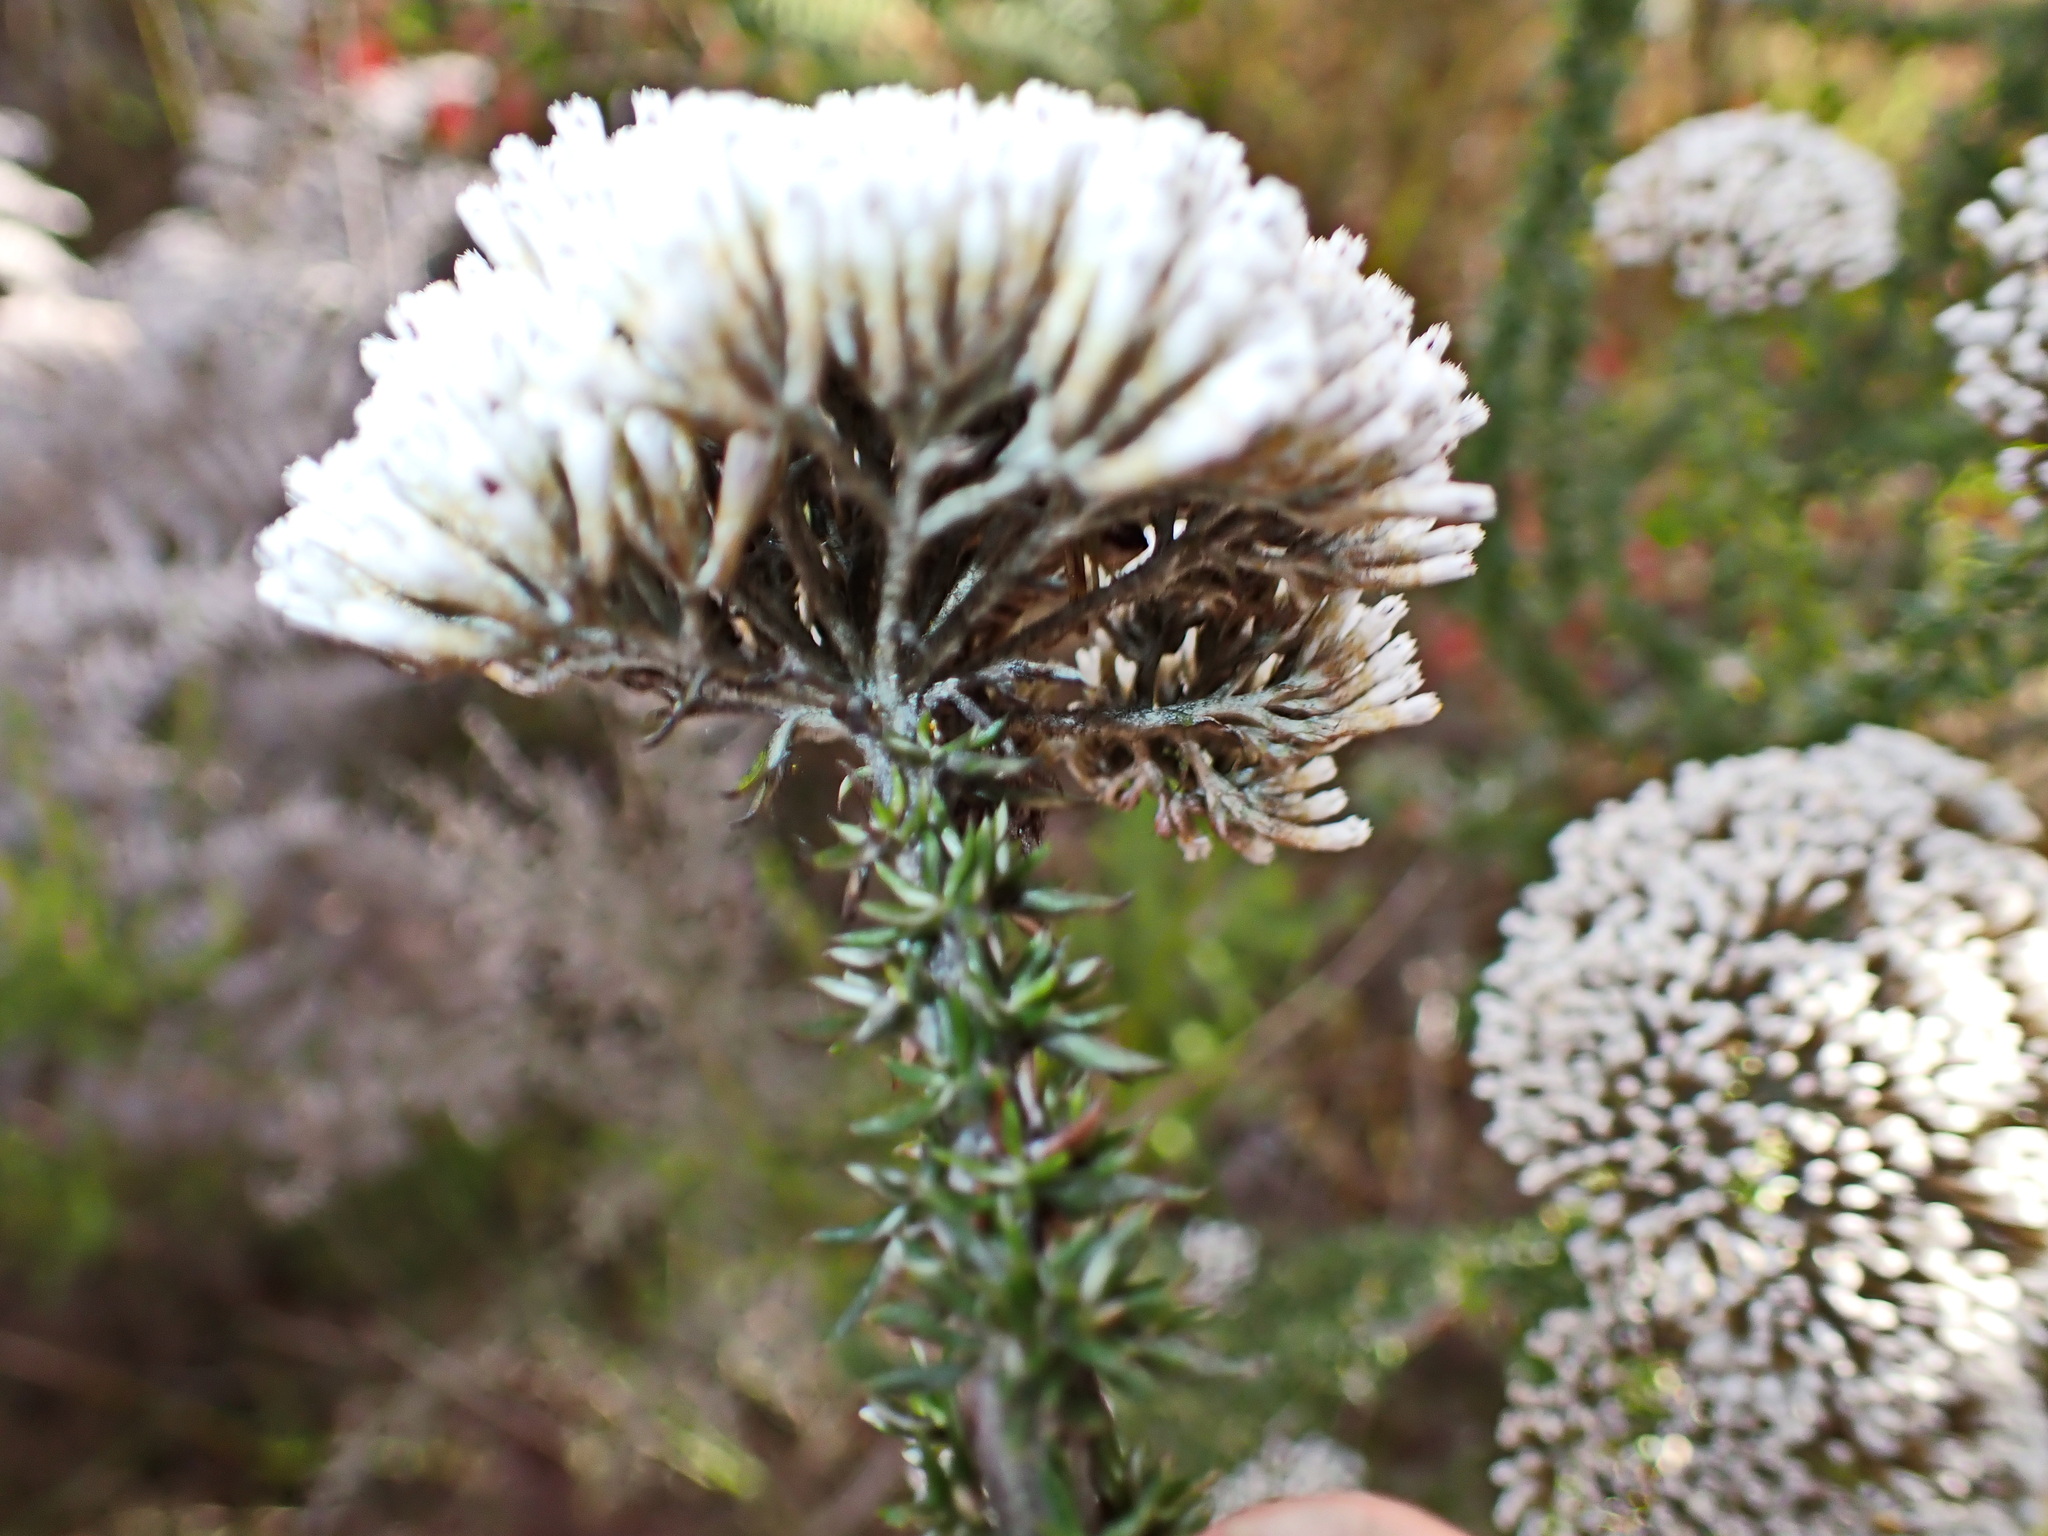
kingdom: Plantae
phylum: Tracheophyta
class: Magnoliopsida
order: Asterales
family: Asteraceae
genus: Metalasia
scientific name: Metalasia densa
